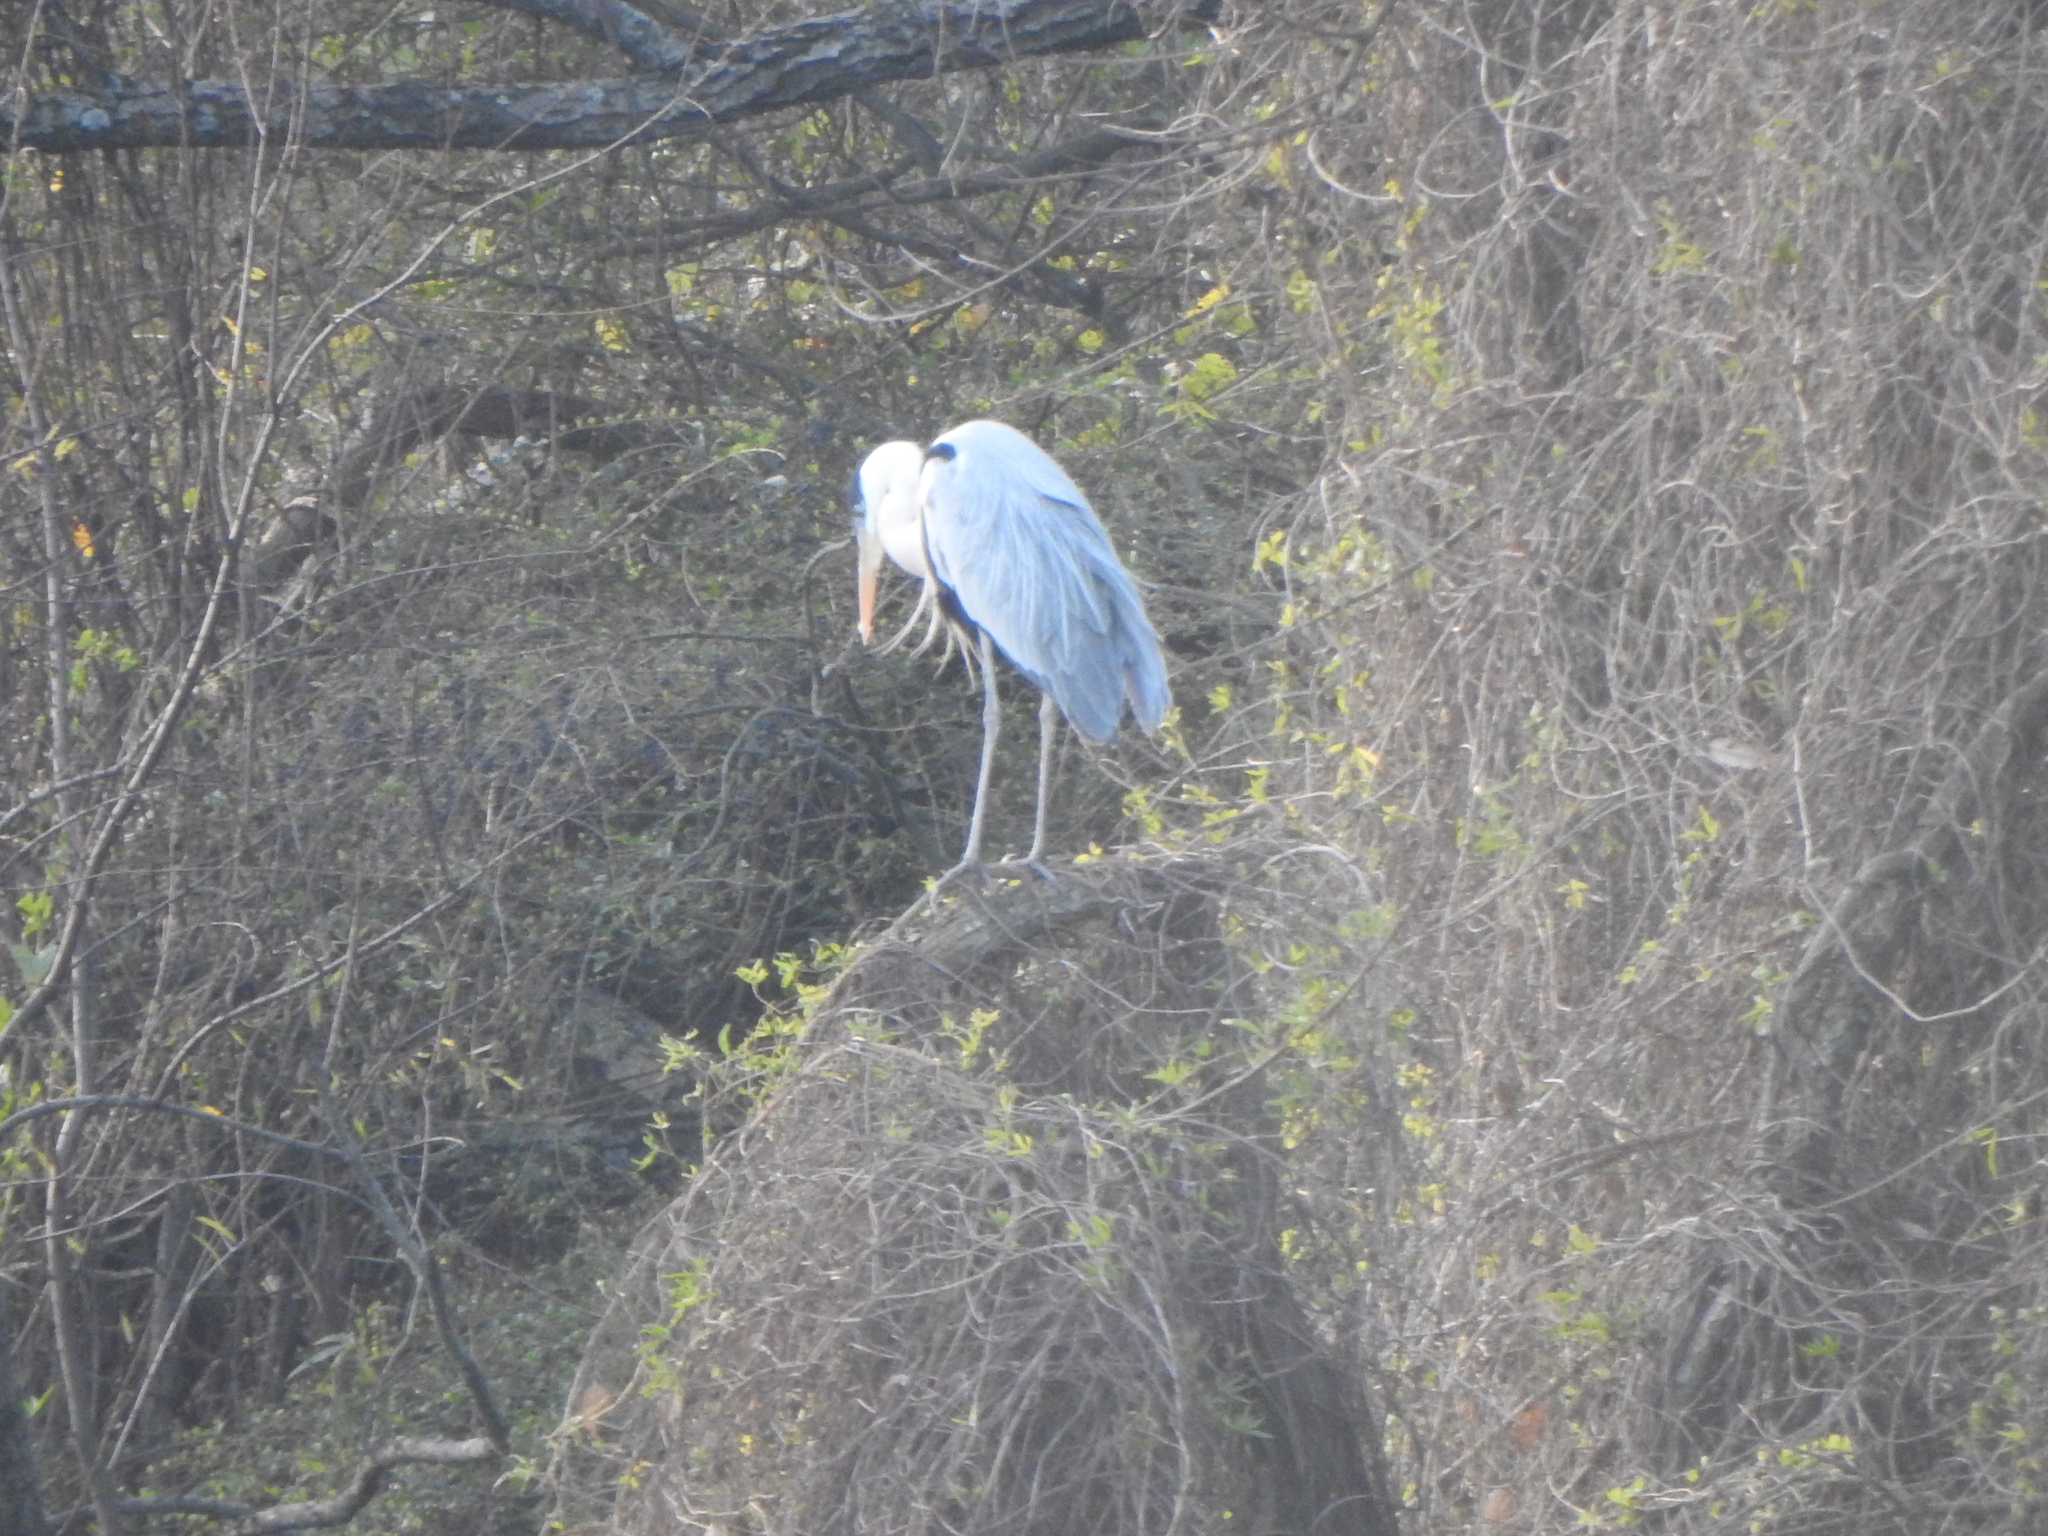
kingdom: Animalia
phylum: Chordata
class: Aves
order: Pelecaniformes
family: Ardeidae
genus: Ardea
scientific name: Ardea cocoi
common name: Cocoi heron
